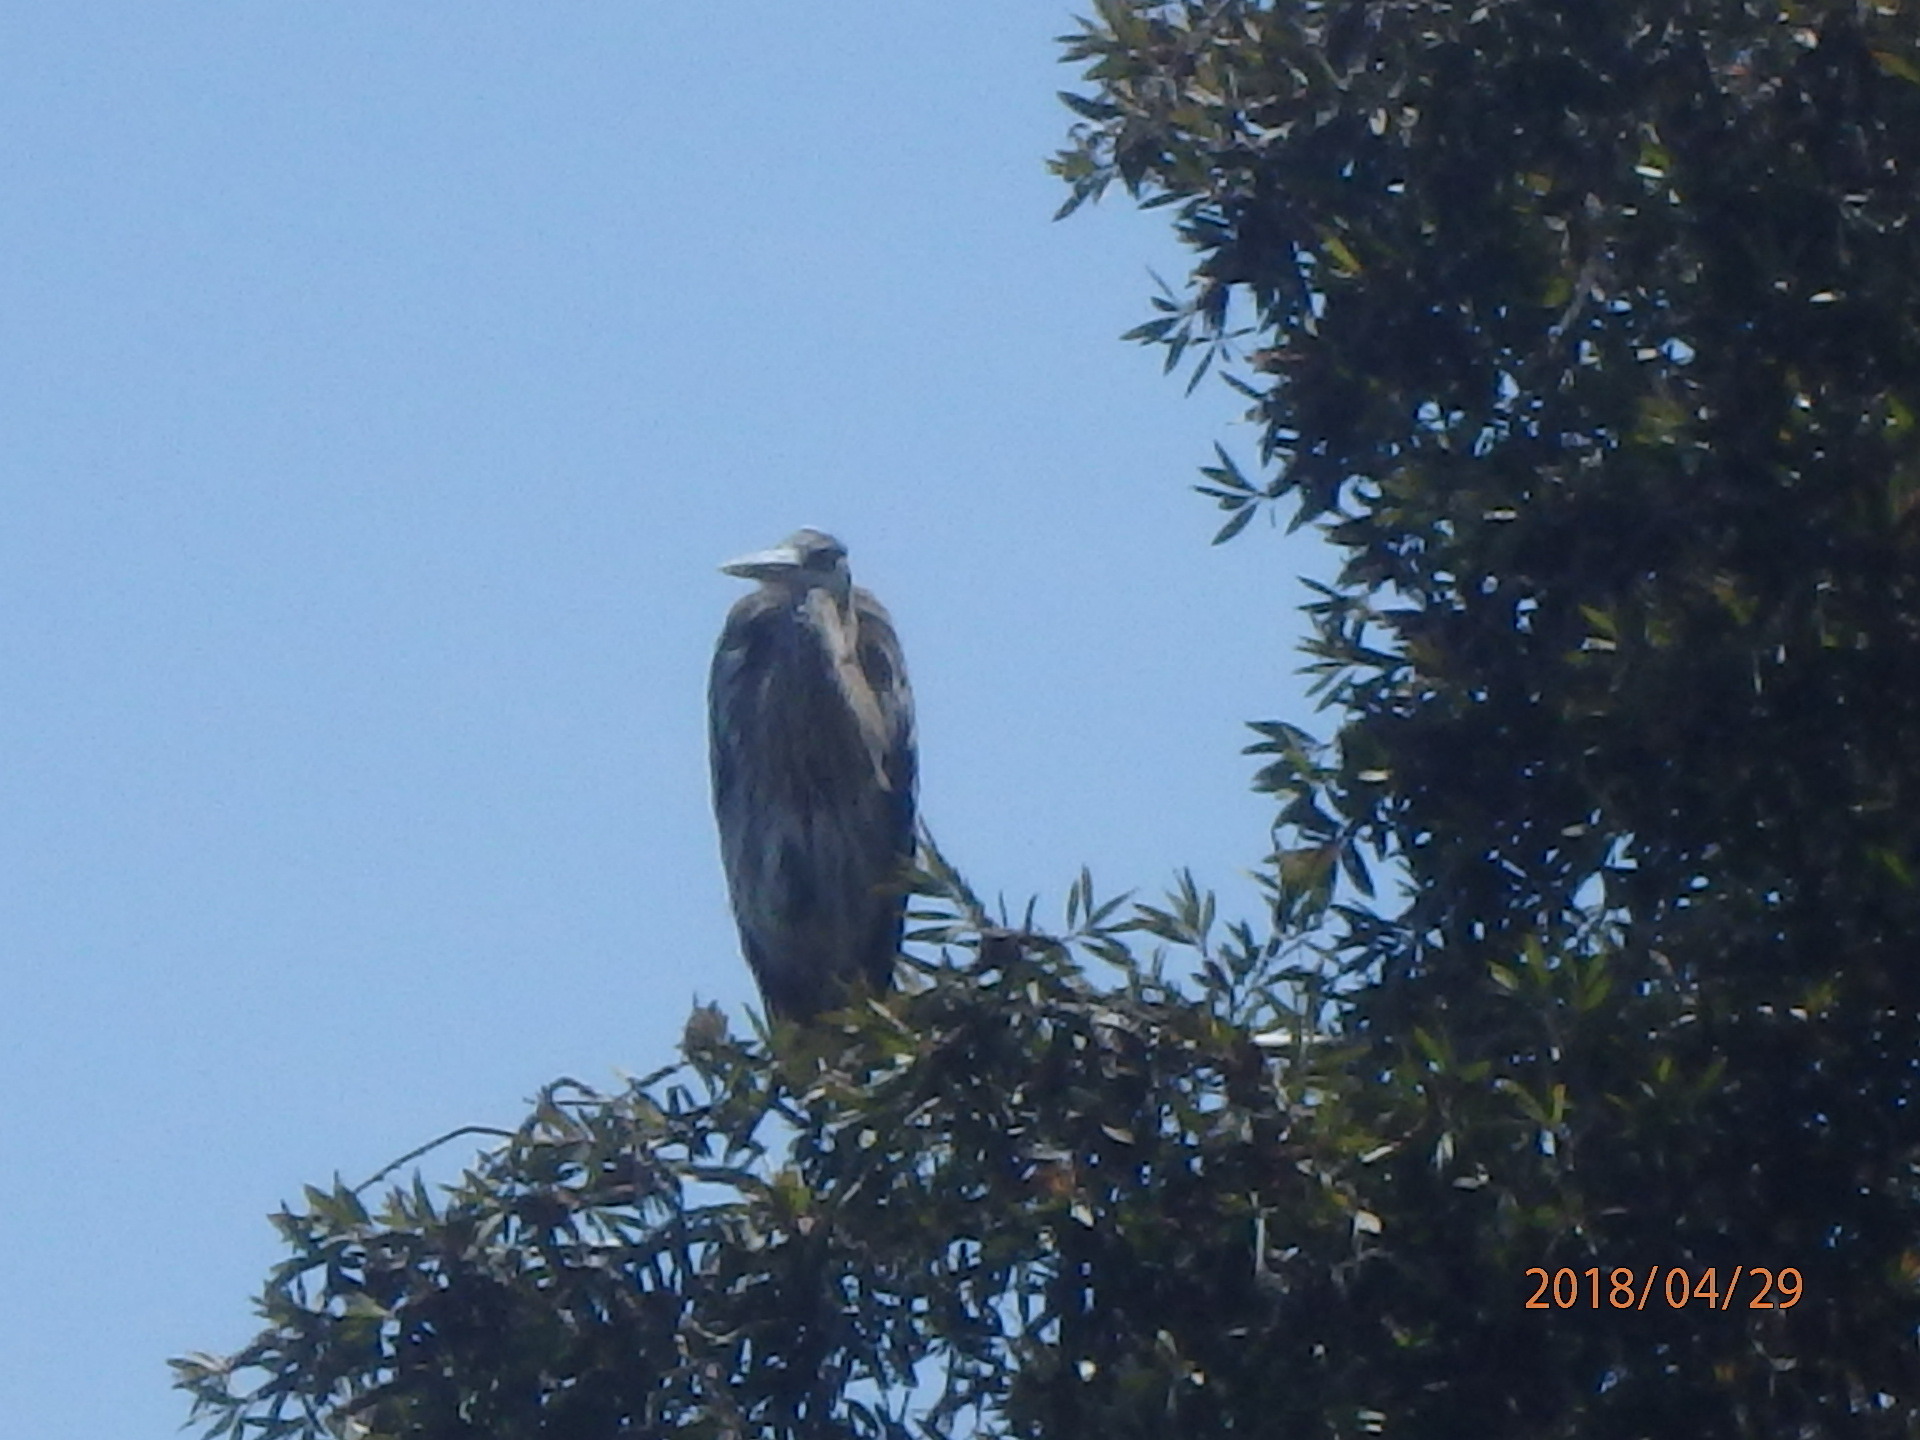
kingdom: Animalia
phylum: Chordata
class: Aves
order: Pelecaniformes
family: Ardeidae
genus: Ardea
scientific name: Ardea herodias
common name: Great blue heron
